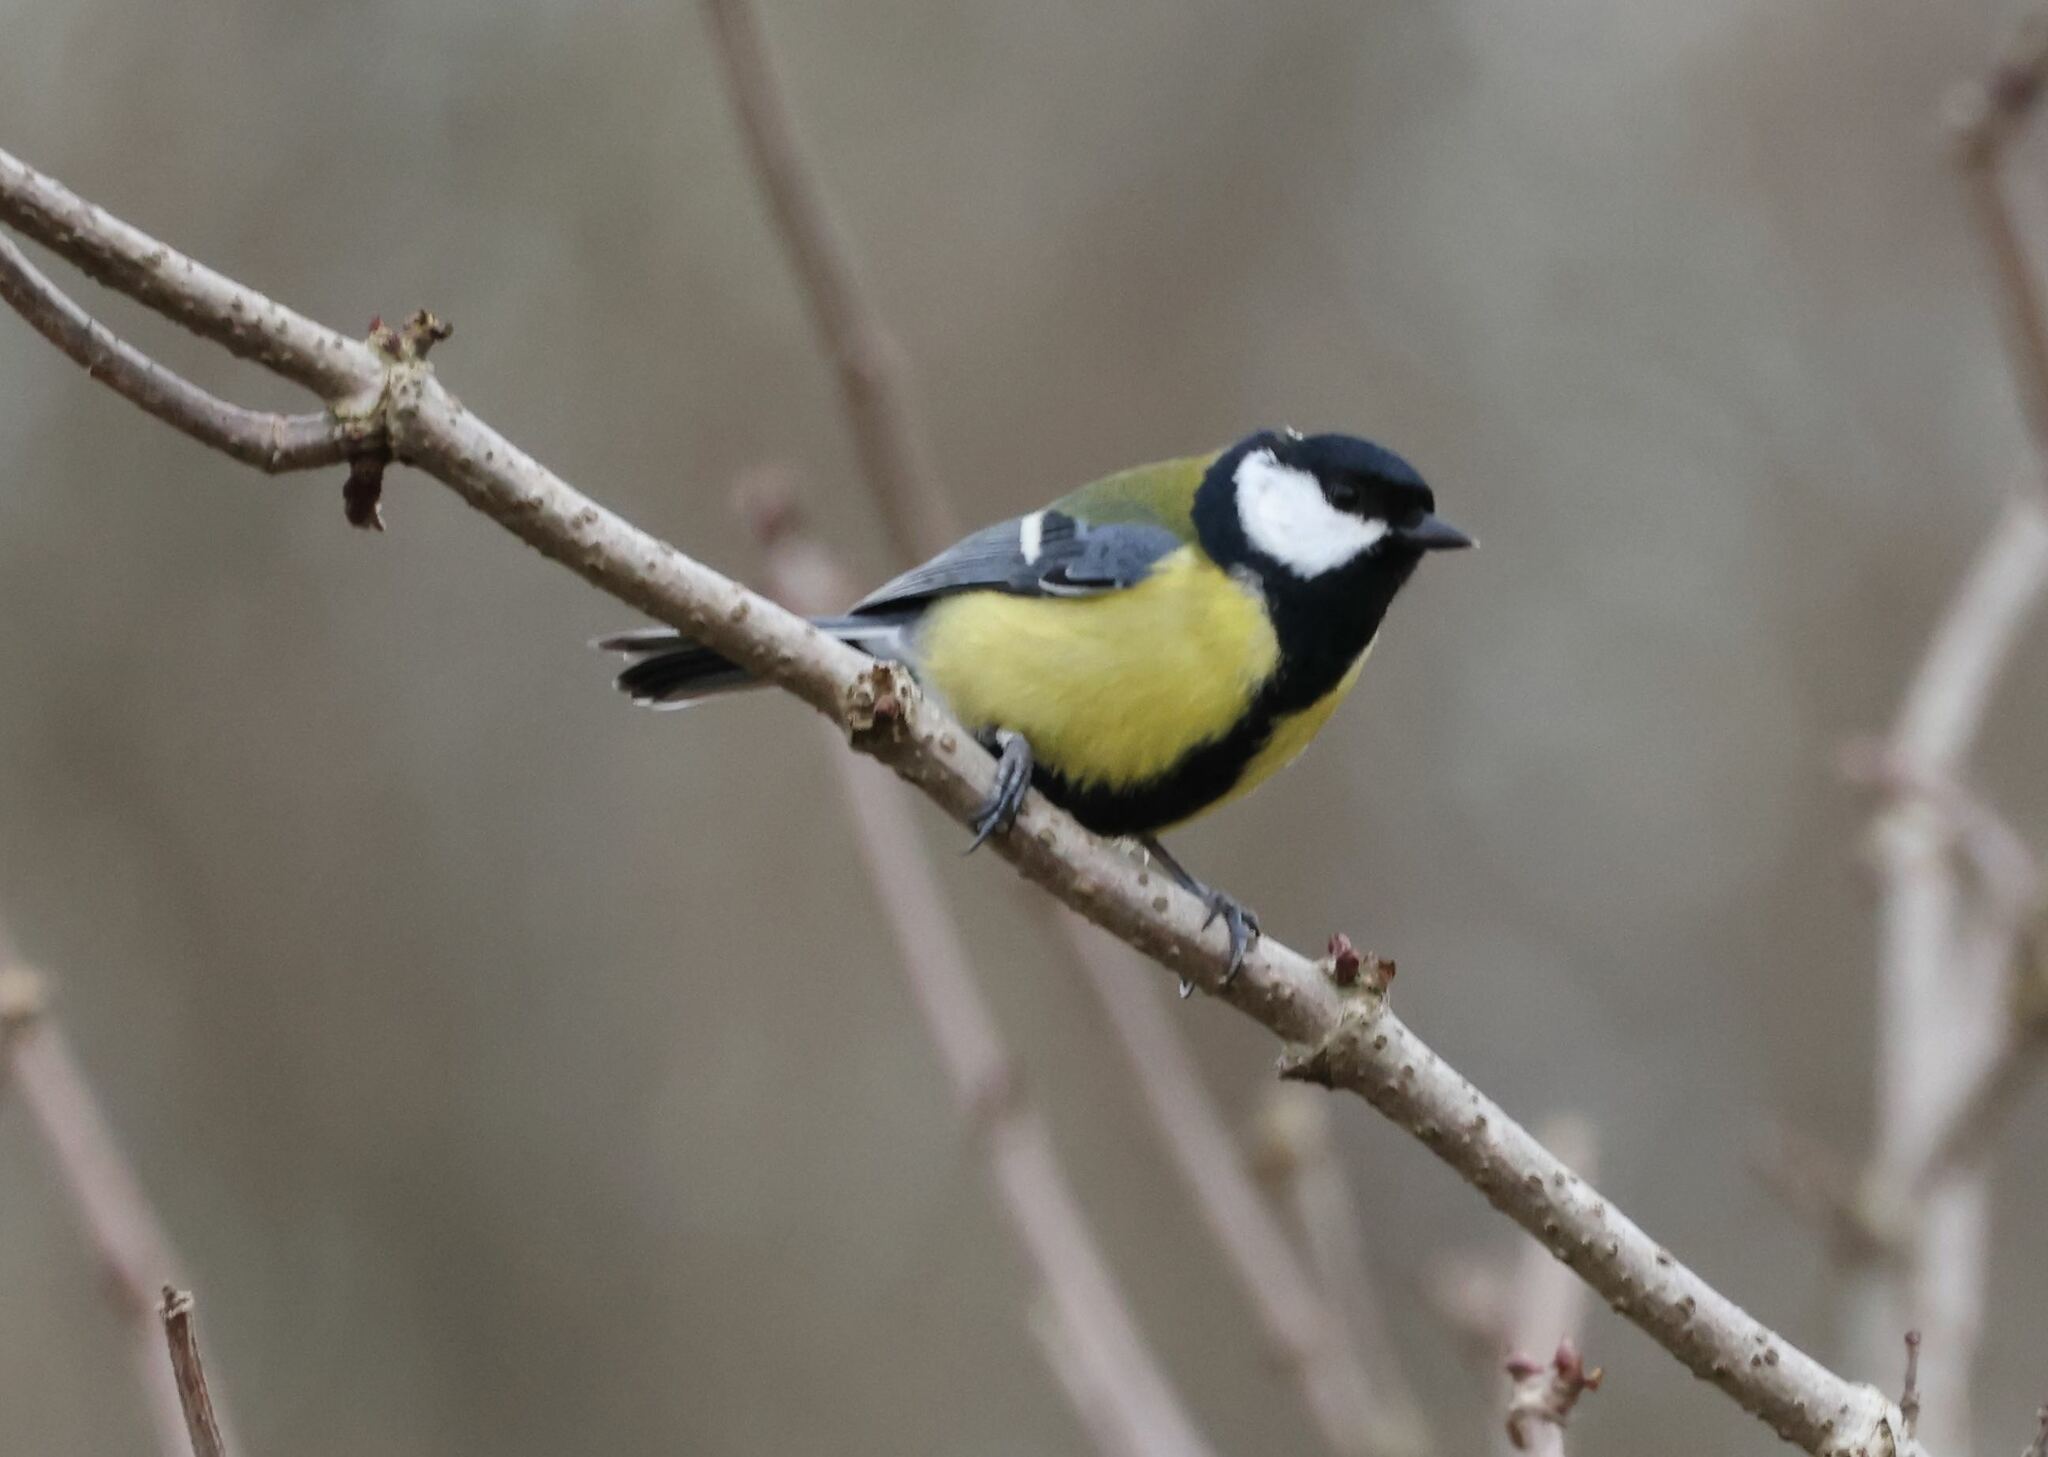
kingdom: Animalia
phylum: Chordata
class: Aves
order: Passeriformes
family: Paridae
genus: Parus
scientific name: Parus major
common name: Great tit
